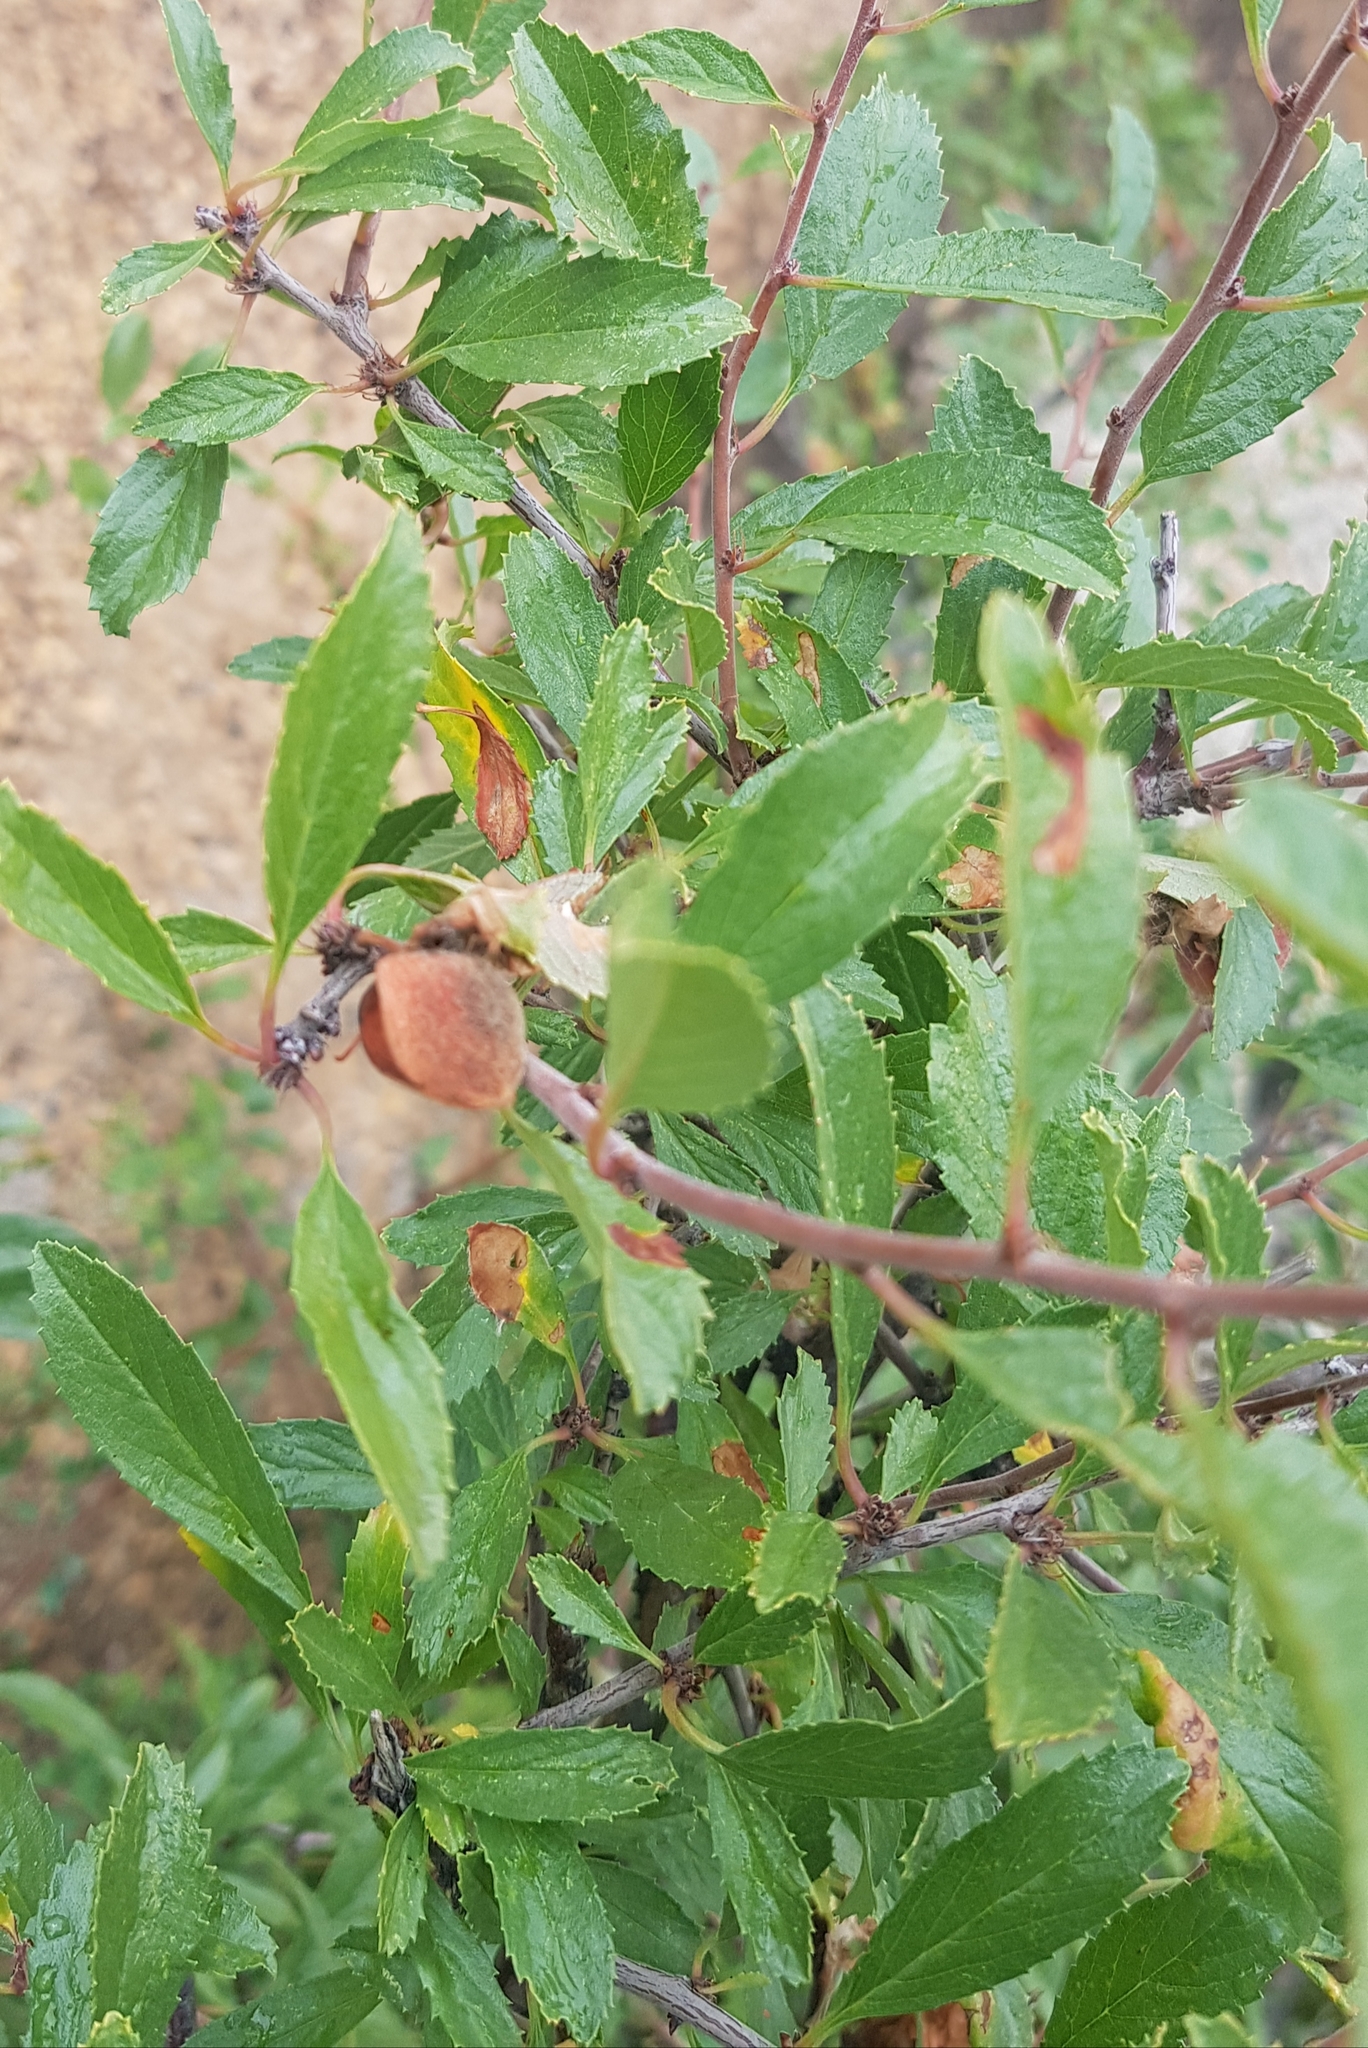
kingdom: Plantae
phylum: Tracheophyta
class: Magnoliopsida
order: Rosales
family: Rosaceae
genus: Prunus
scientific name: Prunus pedunculata
